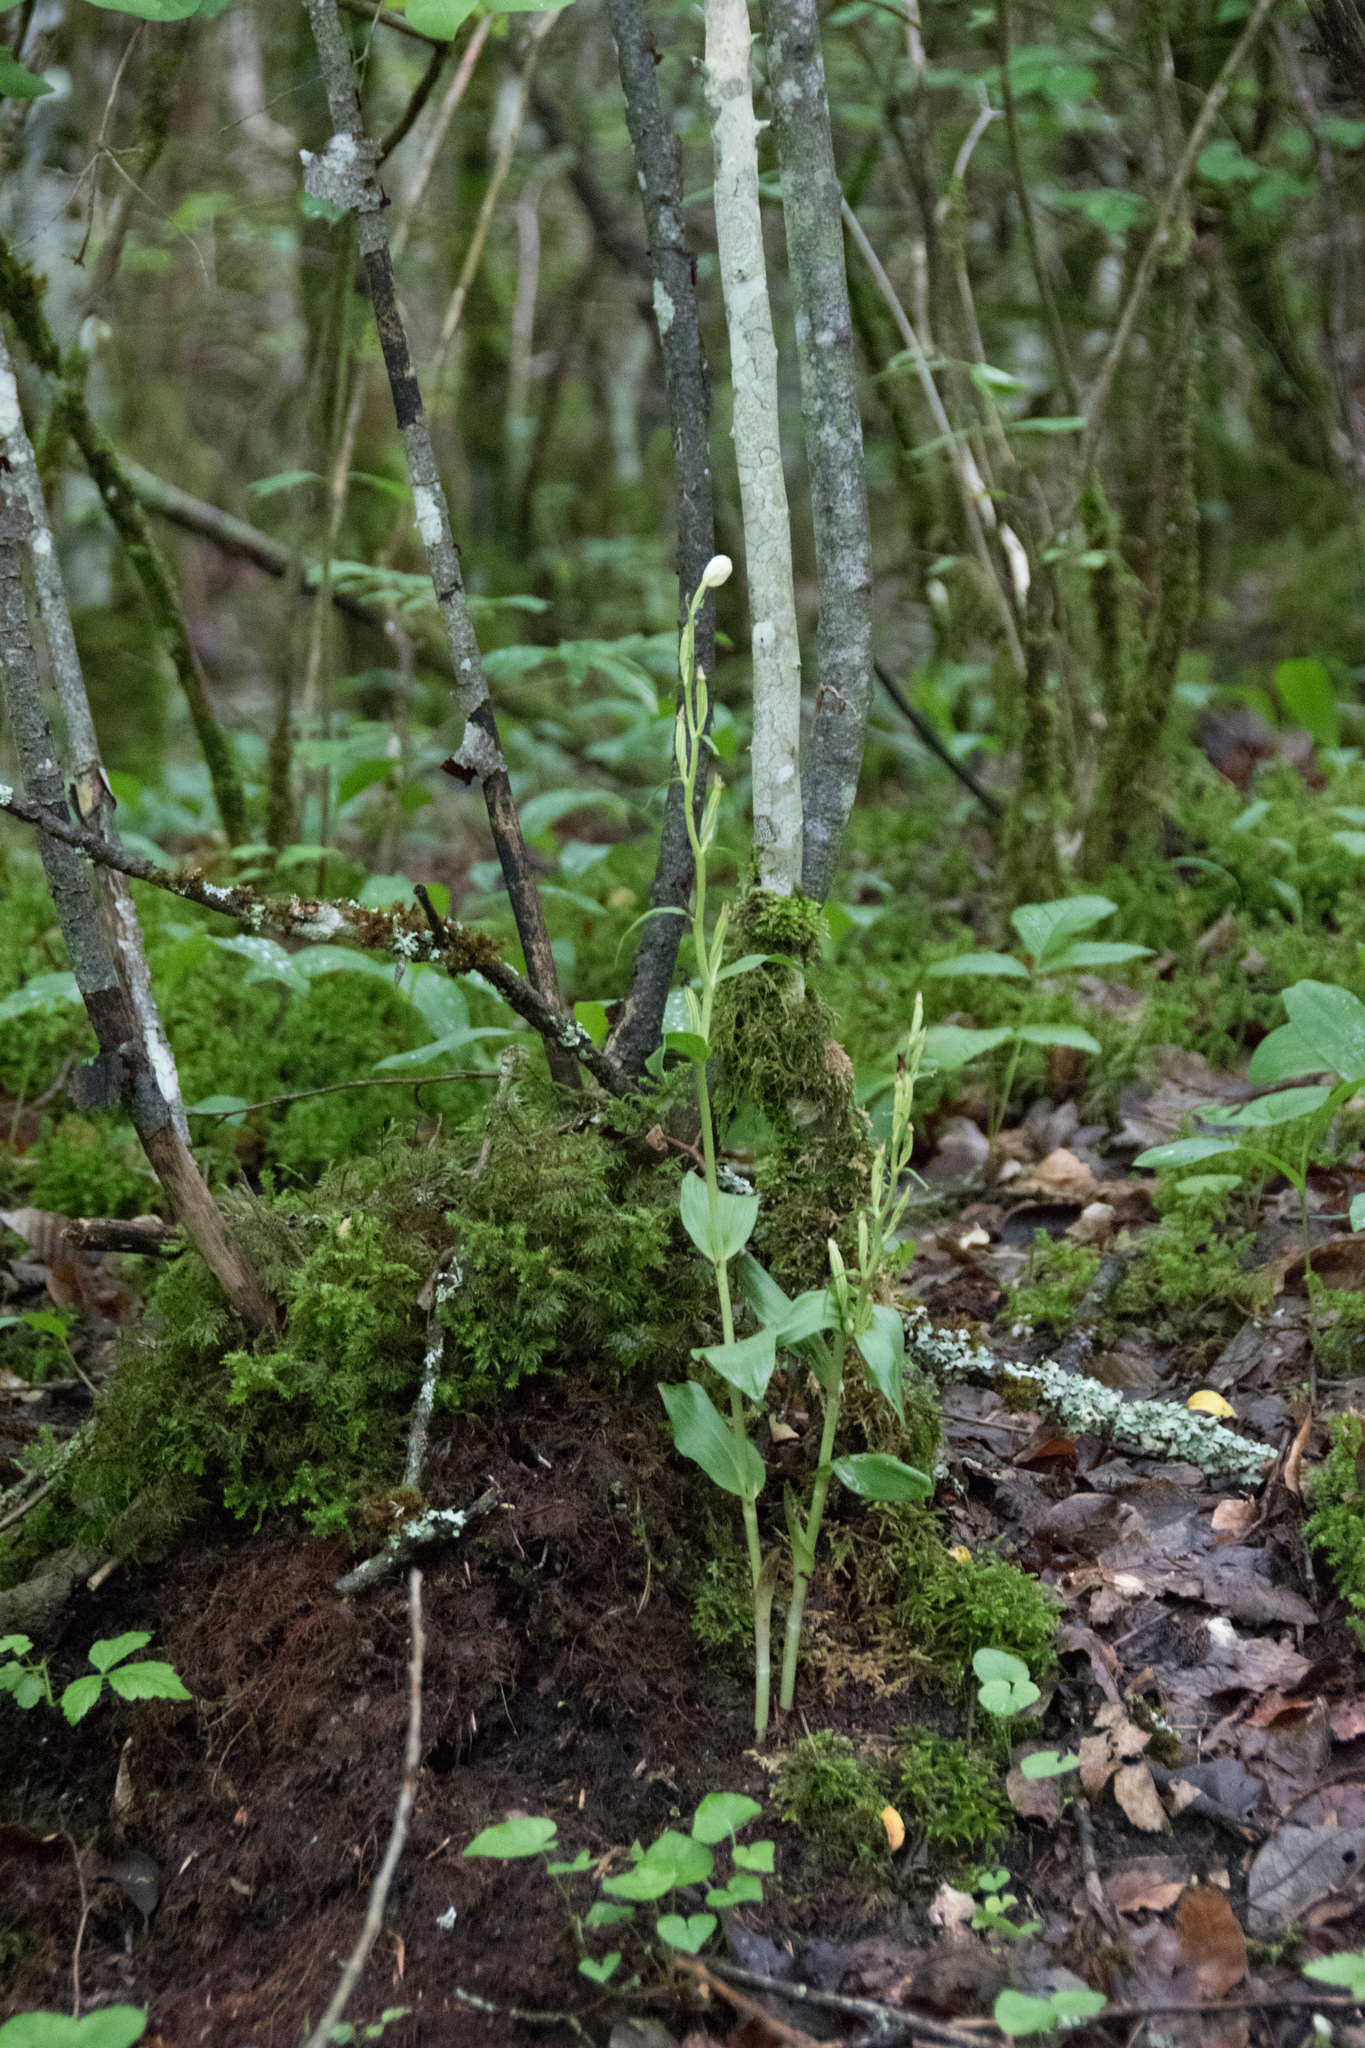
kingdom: Plantae
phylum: Tracheophyta
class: Liliopsida
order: Asparagales
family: Orchidaceae
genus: Cephalanthera
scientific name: Cephalanthera damasonium
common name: White helleborine
